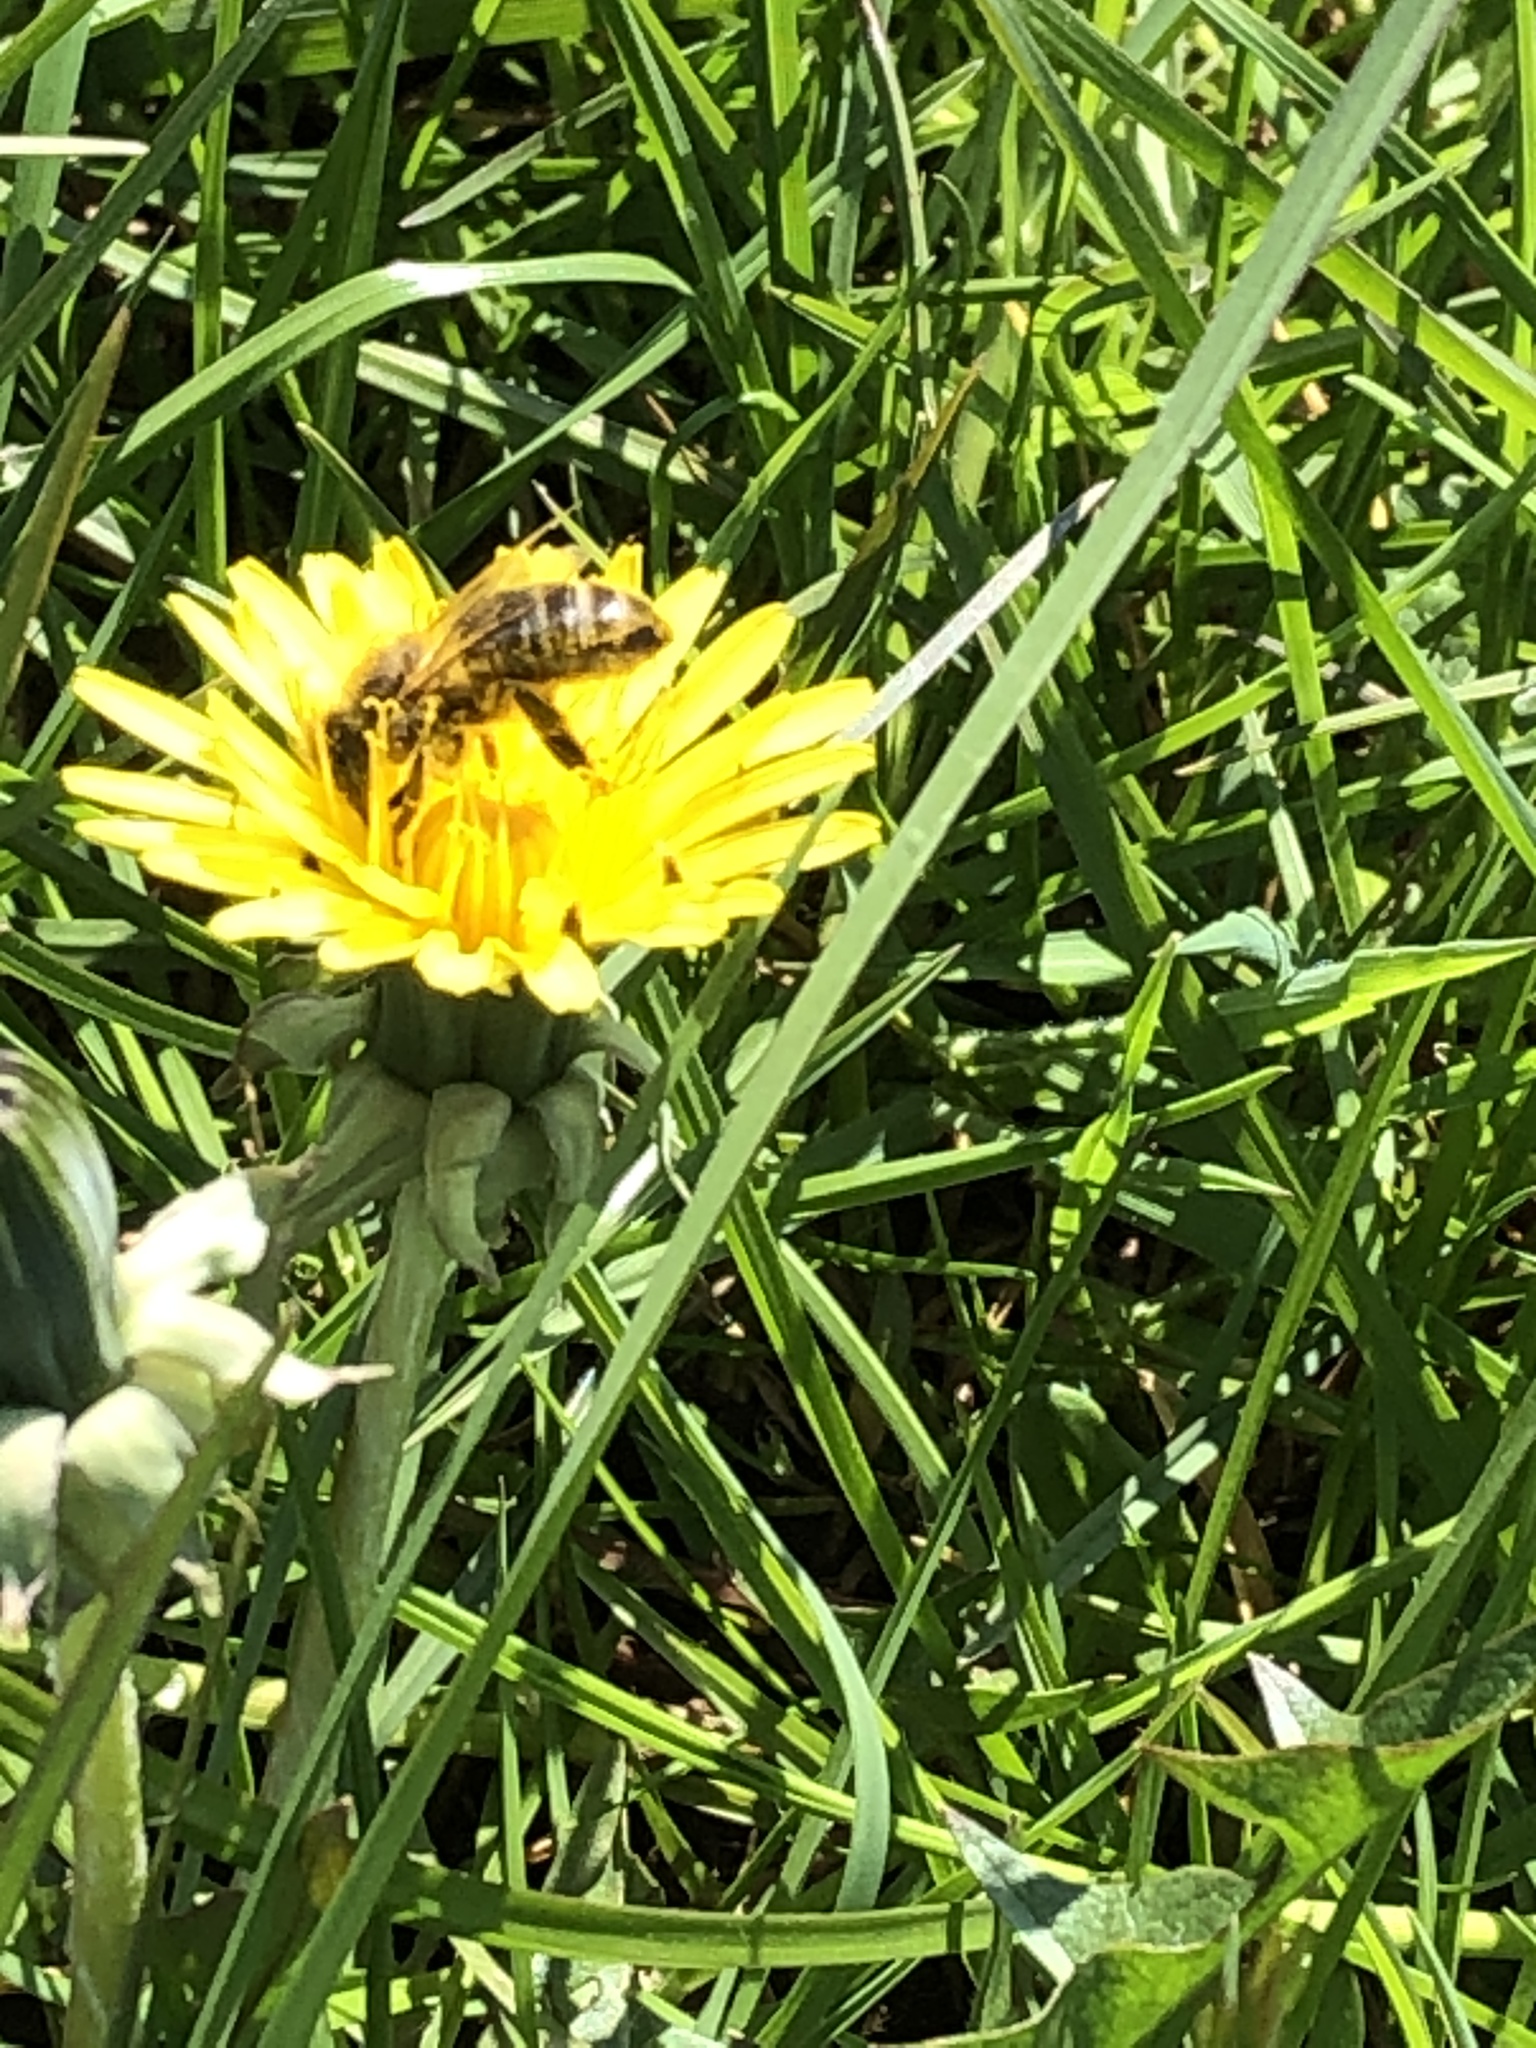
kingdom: Animalia
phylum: Arthropoda
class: Insecta
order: Hymenoptera
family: Apidae
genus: Apis
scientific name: Apis mellifera
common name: Honey bee
